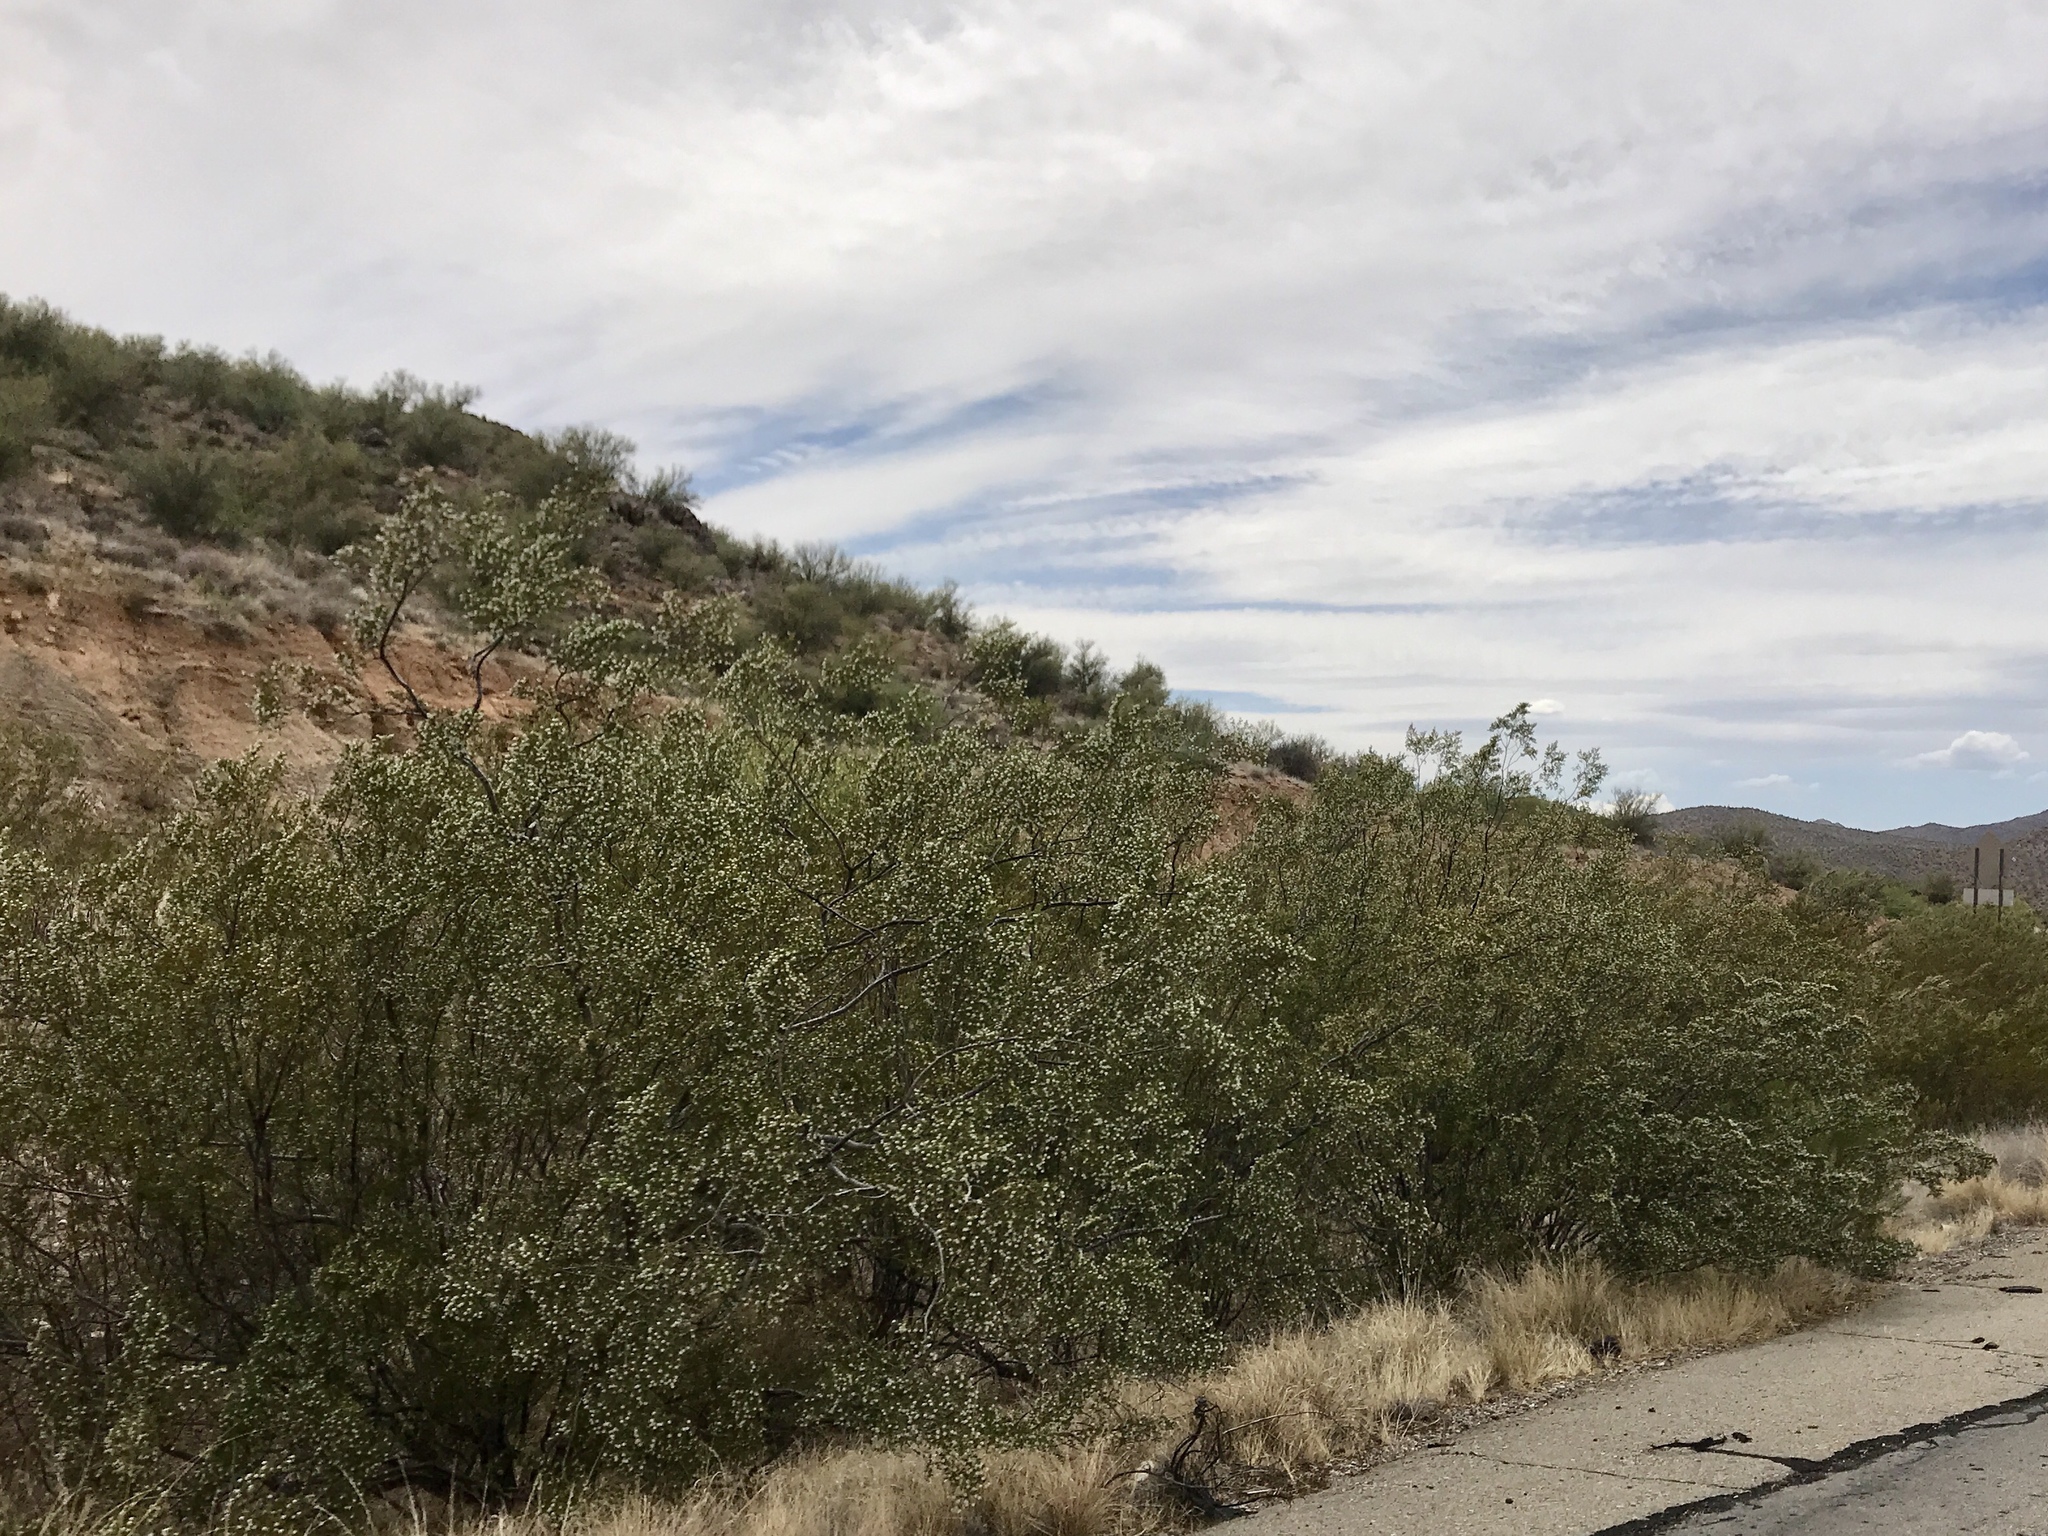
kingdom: Plantae
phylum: Tracheophyta
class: Magnoliopsida
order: Zygophyllales
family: Zygophyllaceae
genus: Larrea
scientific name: Larrea tridentata
